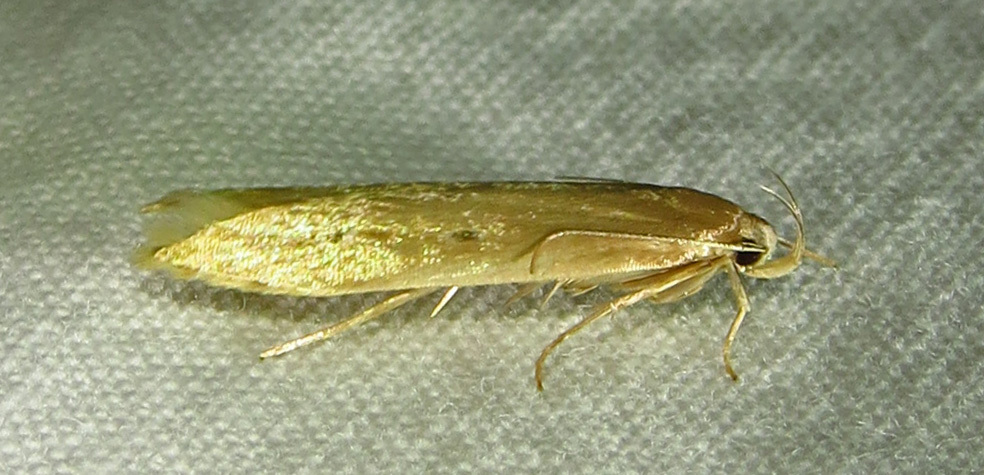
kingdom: Animalia
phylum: Arthropoda
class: Insecta
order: Lepidoptera
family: Cosmopterigidae
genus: Limnaecia
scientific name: Limnaecia phragmitella
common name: Bulrush cosmet
